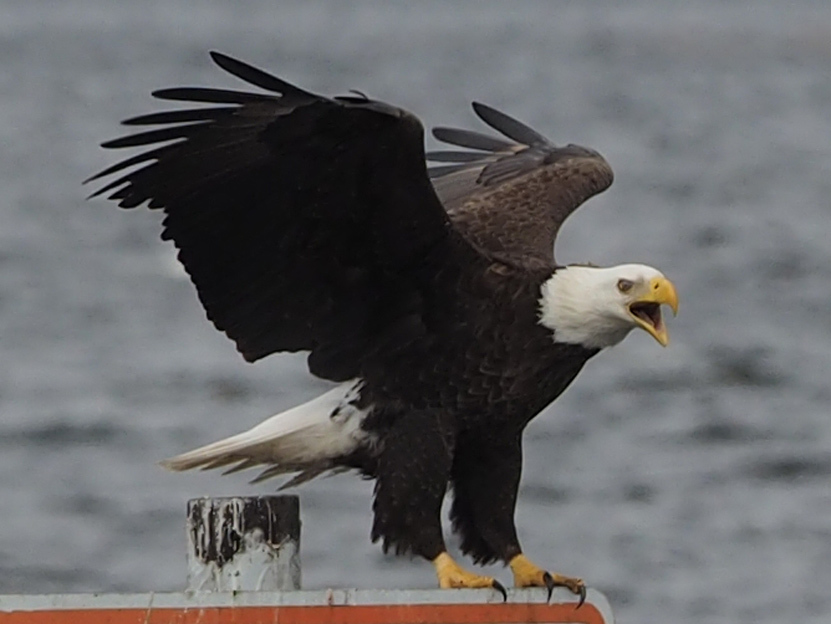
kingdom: Animalia
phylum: Chordata
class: Aves
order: Accipitriformes
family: Accipitridae
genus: Haliaeetus
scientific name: Haliaeetus leucocephalus
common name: Bald eagle
